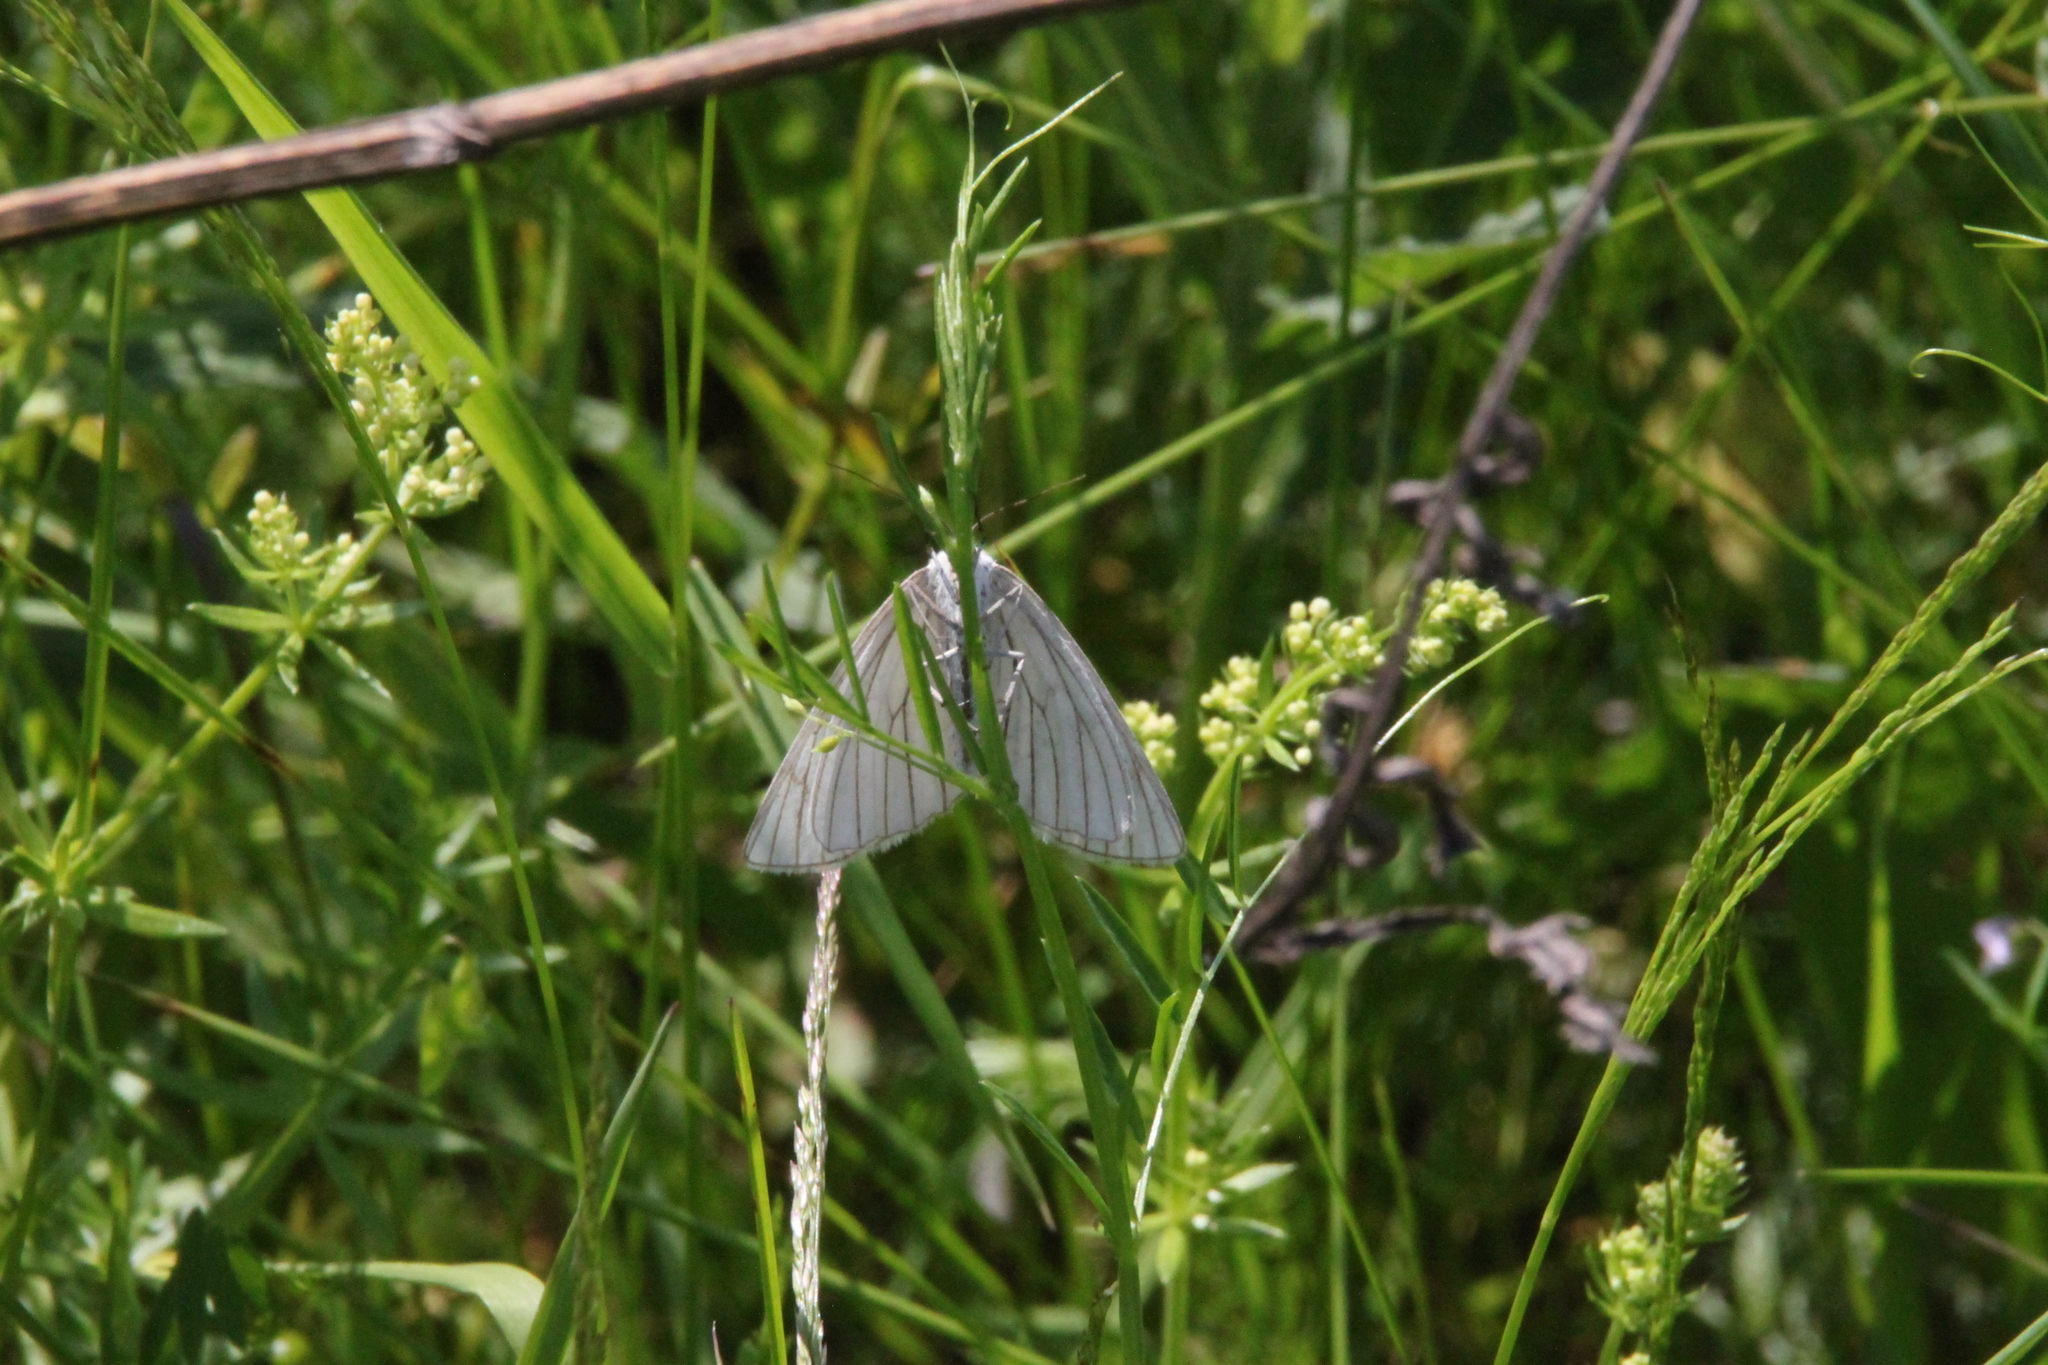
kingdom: Animalia
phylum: Arthropoda
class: Insecta
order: Lepidoptera
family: Geometridae
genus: Siona
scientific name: Siona lineata
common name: Black-veined moth
